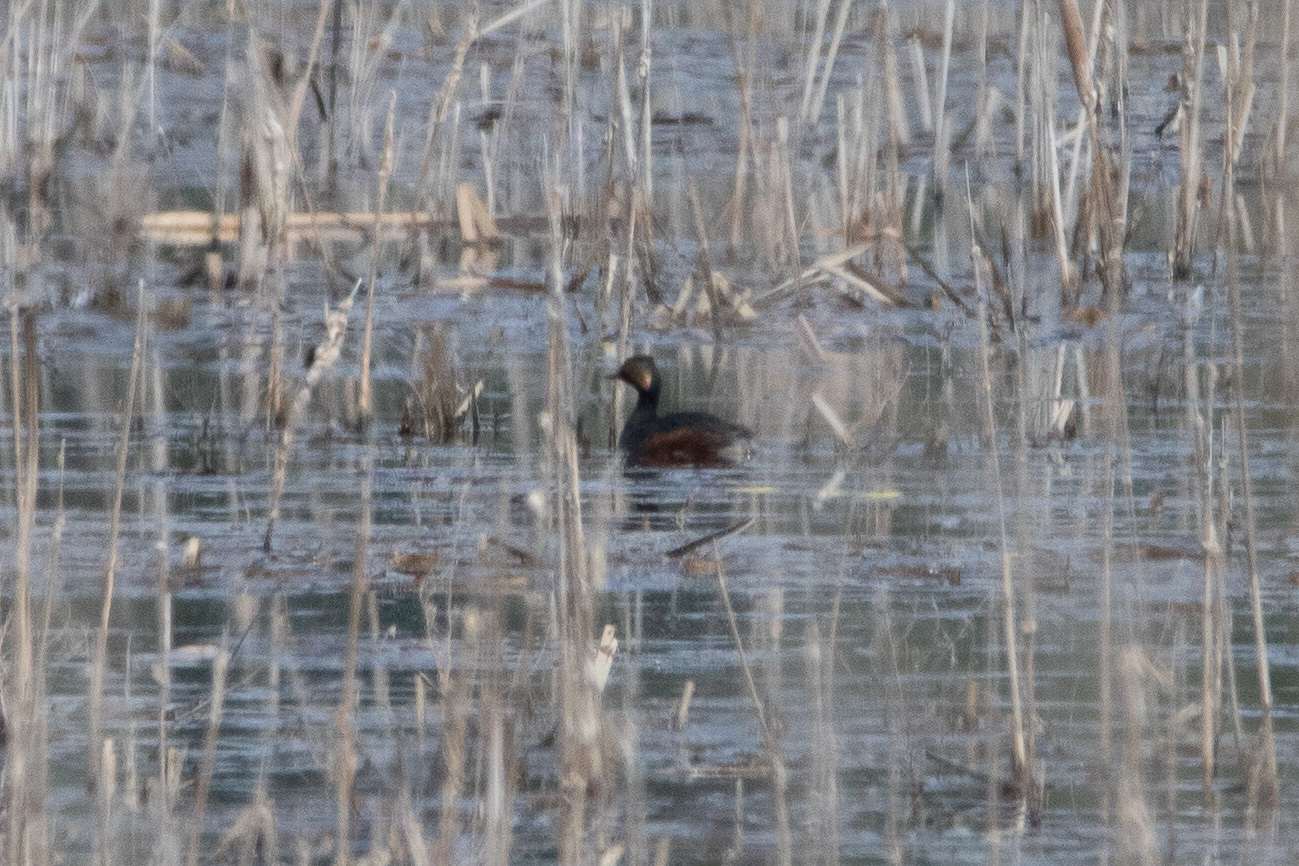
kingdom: Animalia
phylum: Chordata
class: Aves
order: Podicipediformes
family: Podicipedidae
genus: Podiceps
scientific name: Podiceps nigricollis
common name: Black-necked grebe
